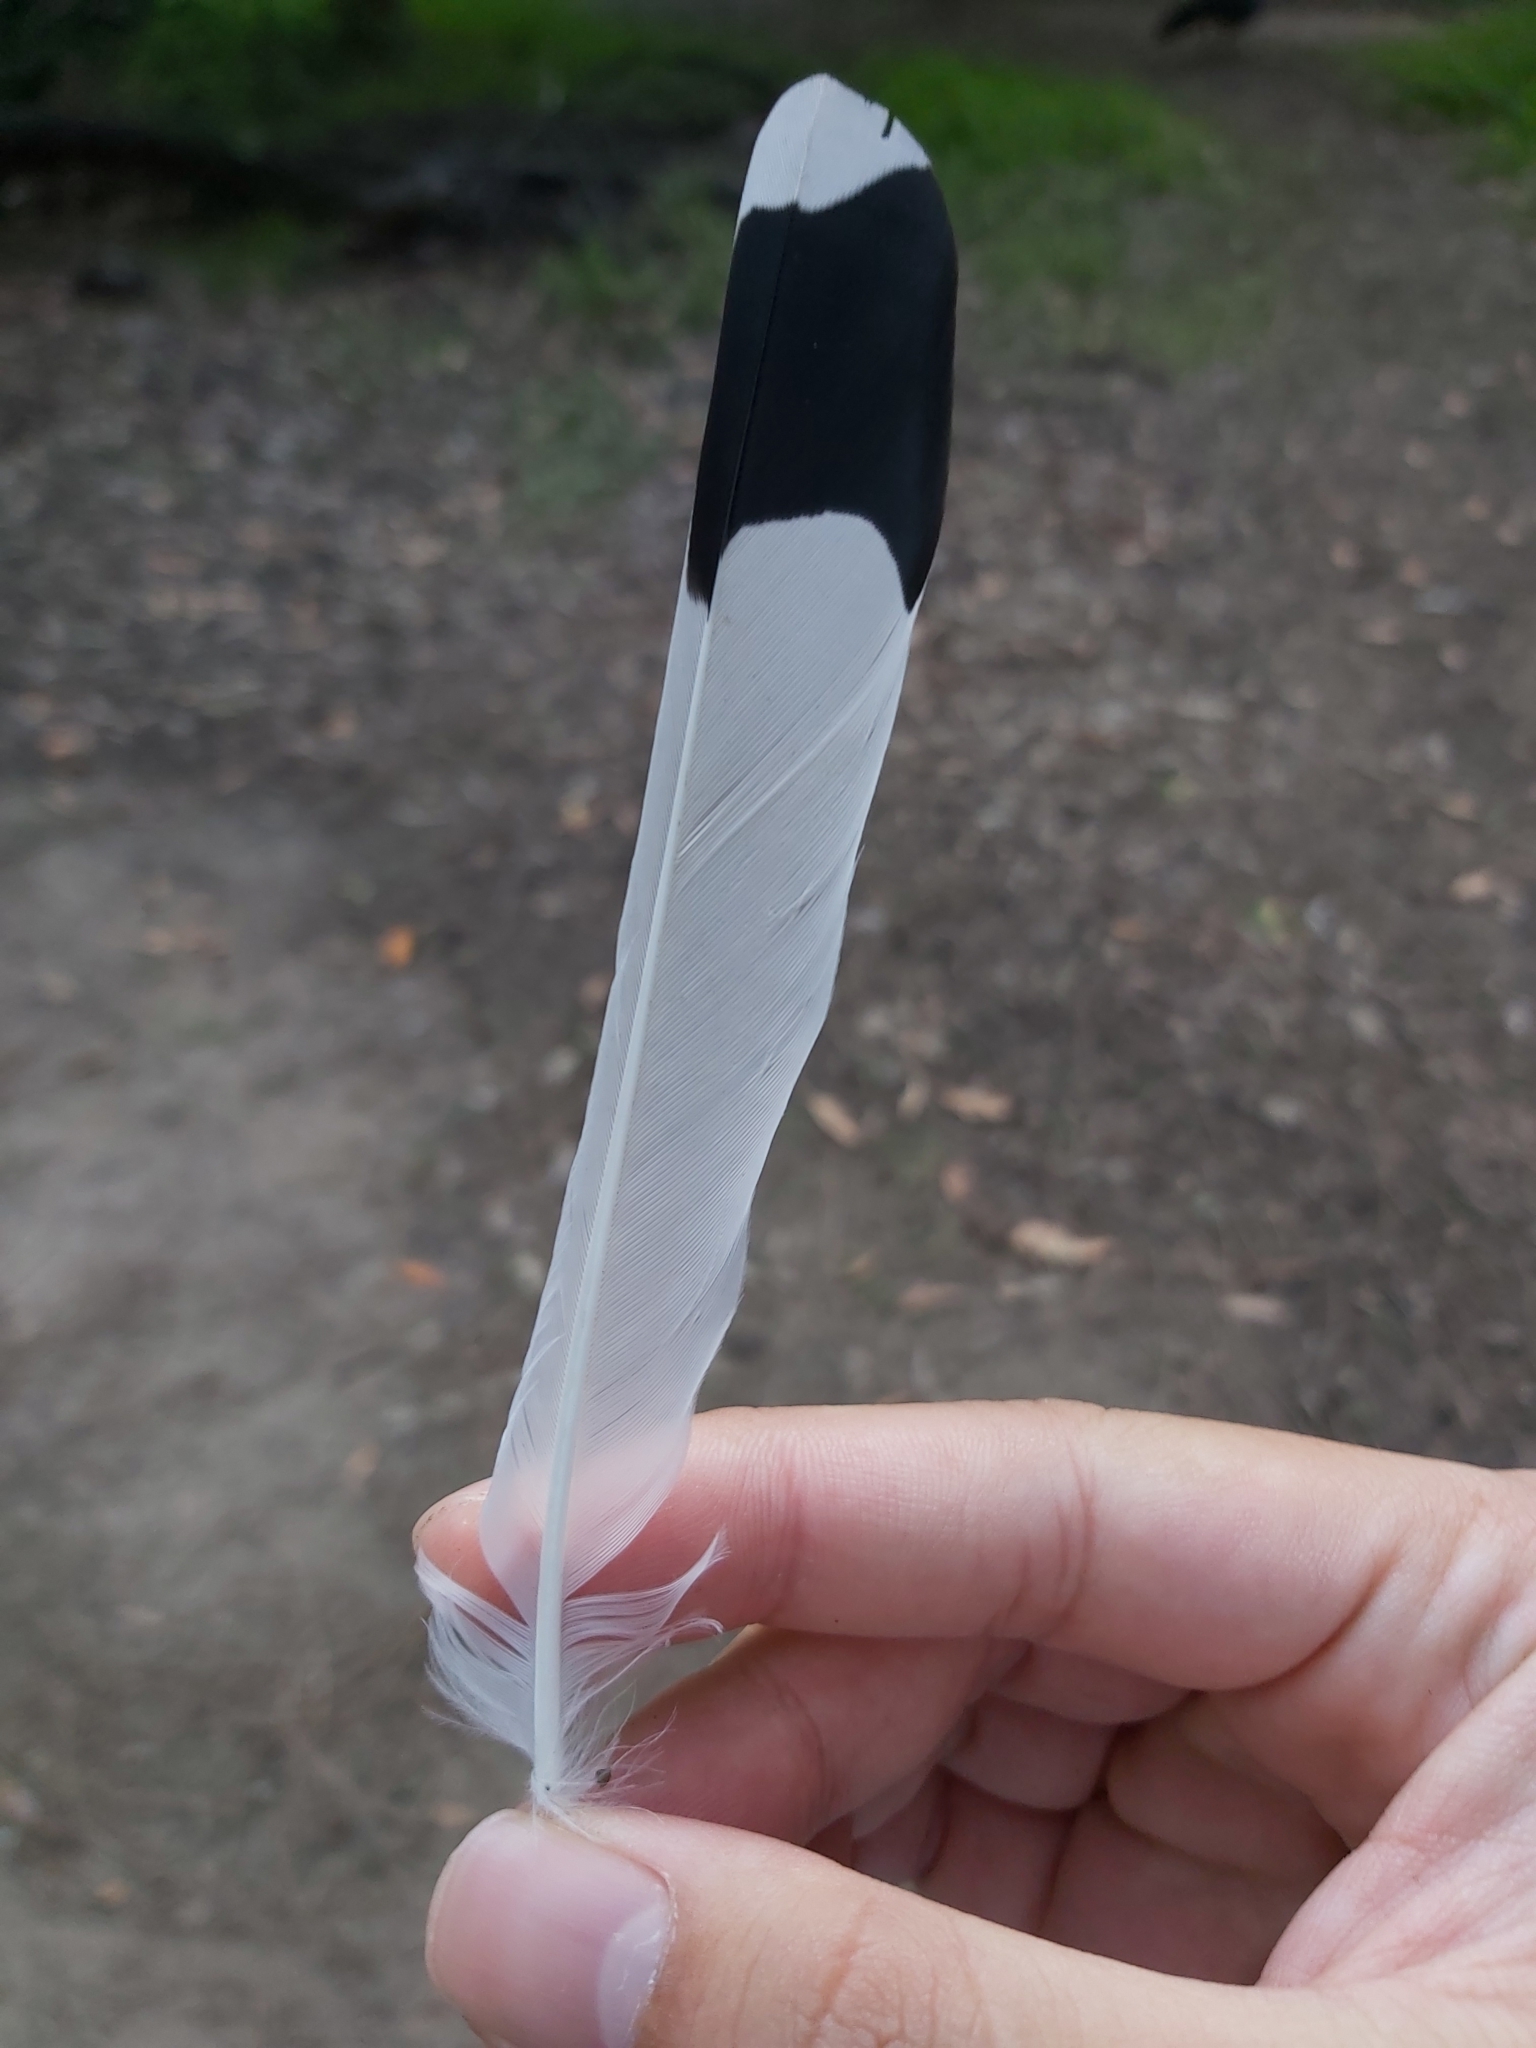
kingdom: Animalia
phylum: Chordata
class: Aves
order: Passeriformes
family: Monarchidae
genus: Grallina
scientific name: Grallina cyanoleuca
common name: Magpie-lark
